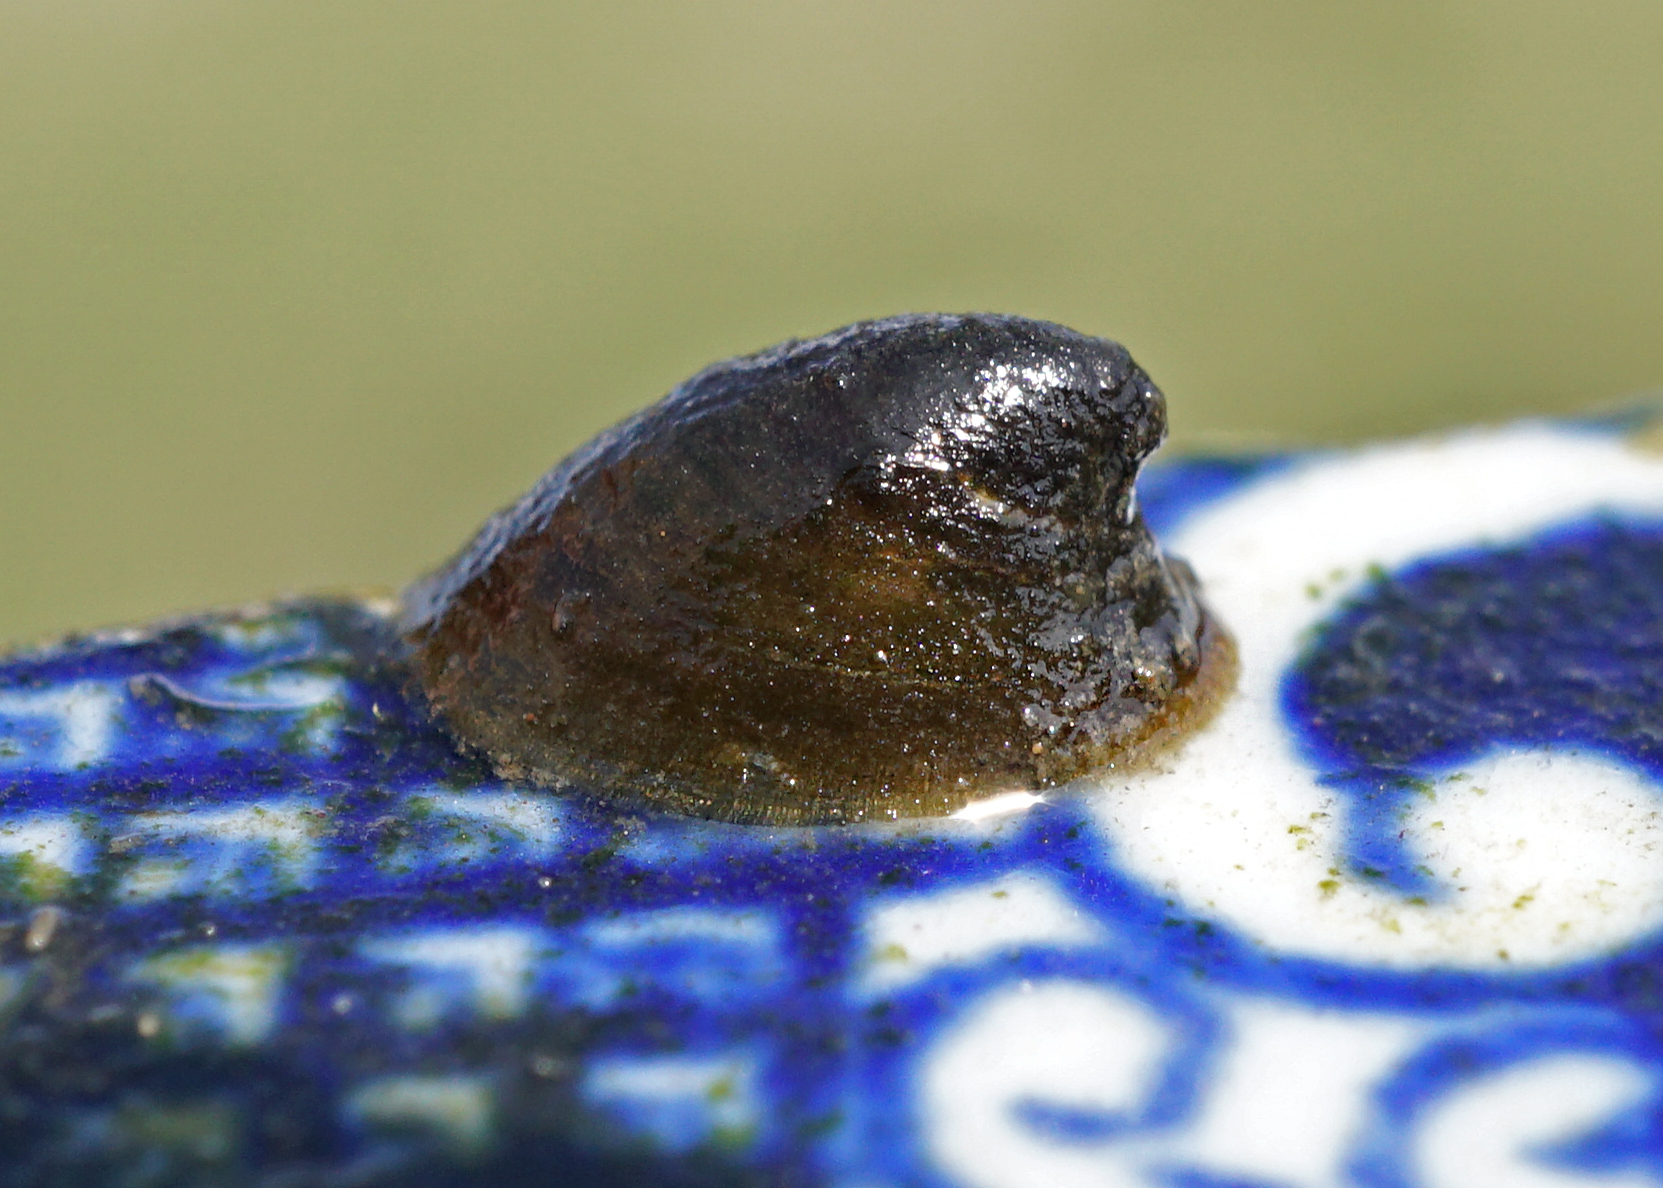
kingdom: Animalia
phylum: Mollusca
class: Gastropoda
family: Planorbidae
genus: Ancylus
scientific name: Ancylus fluviatilis
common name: River limpet
